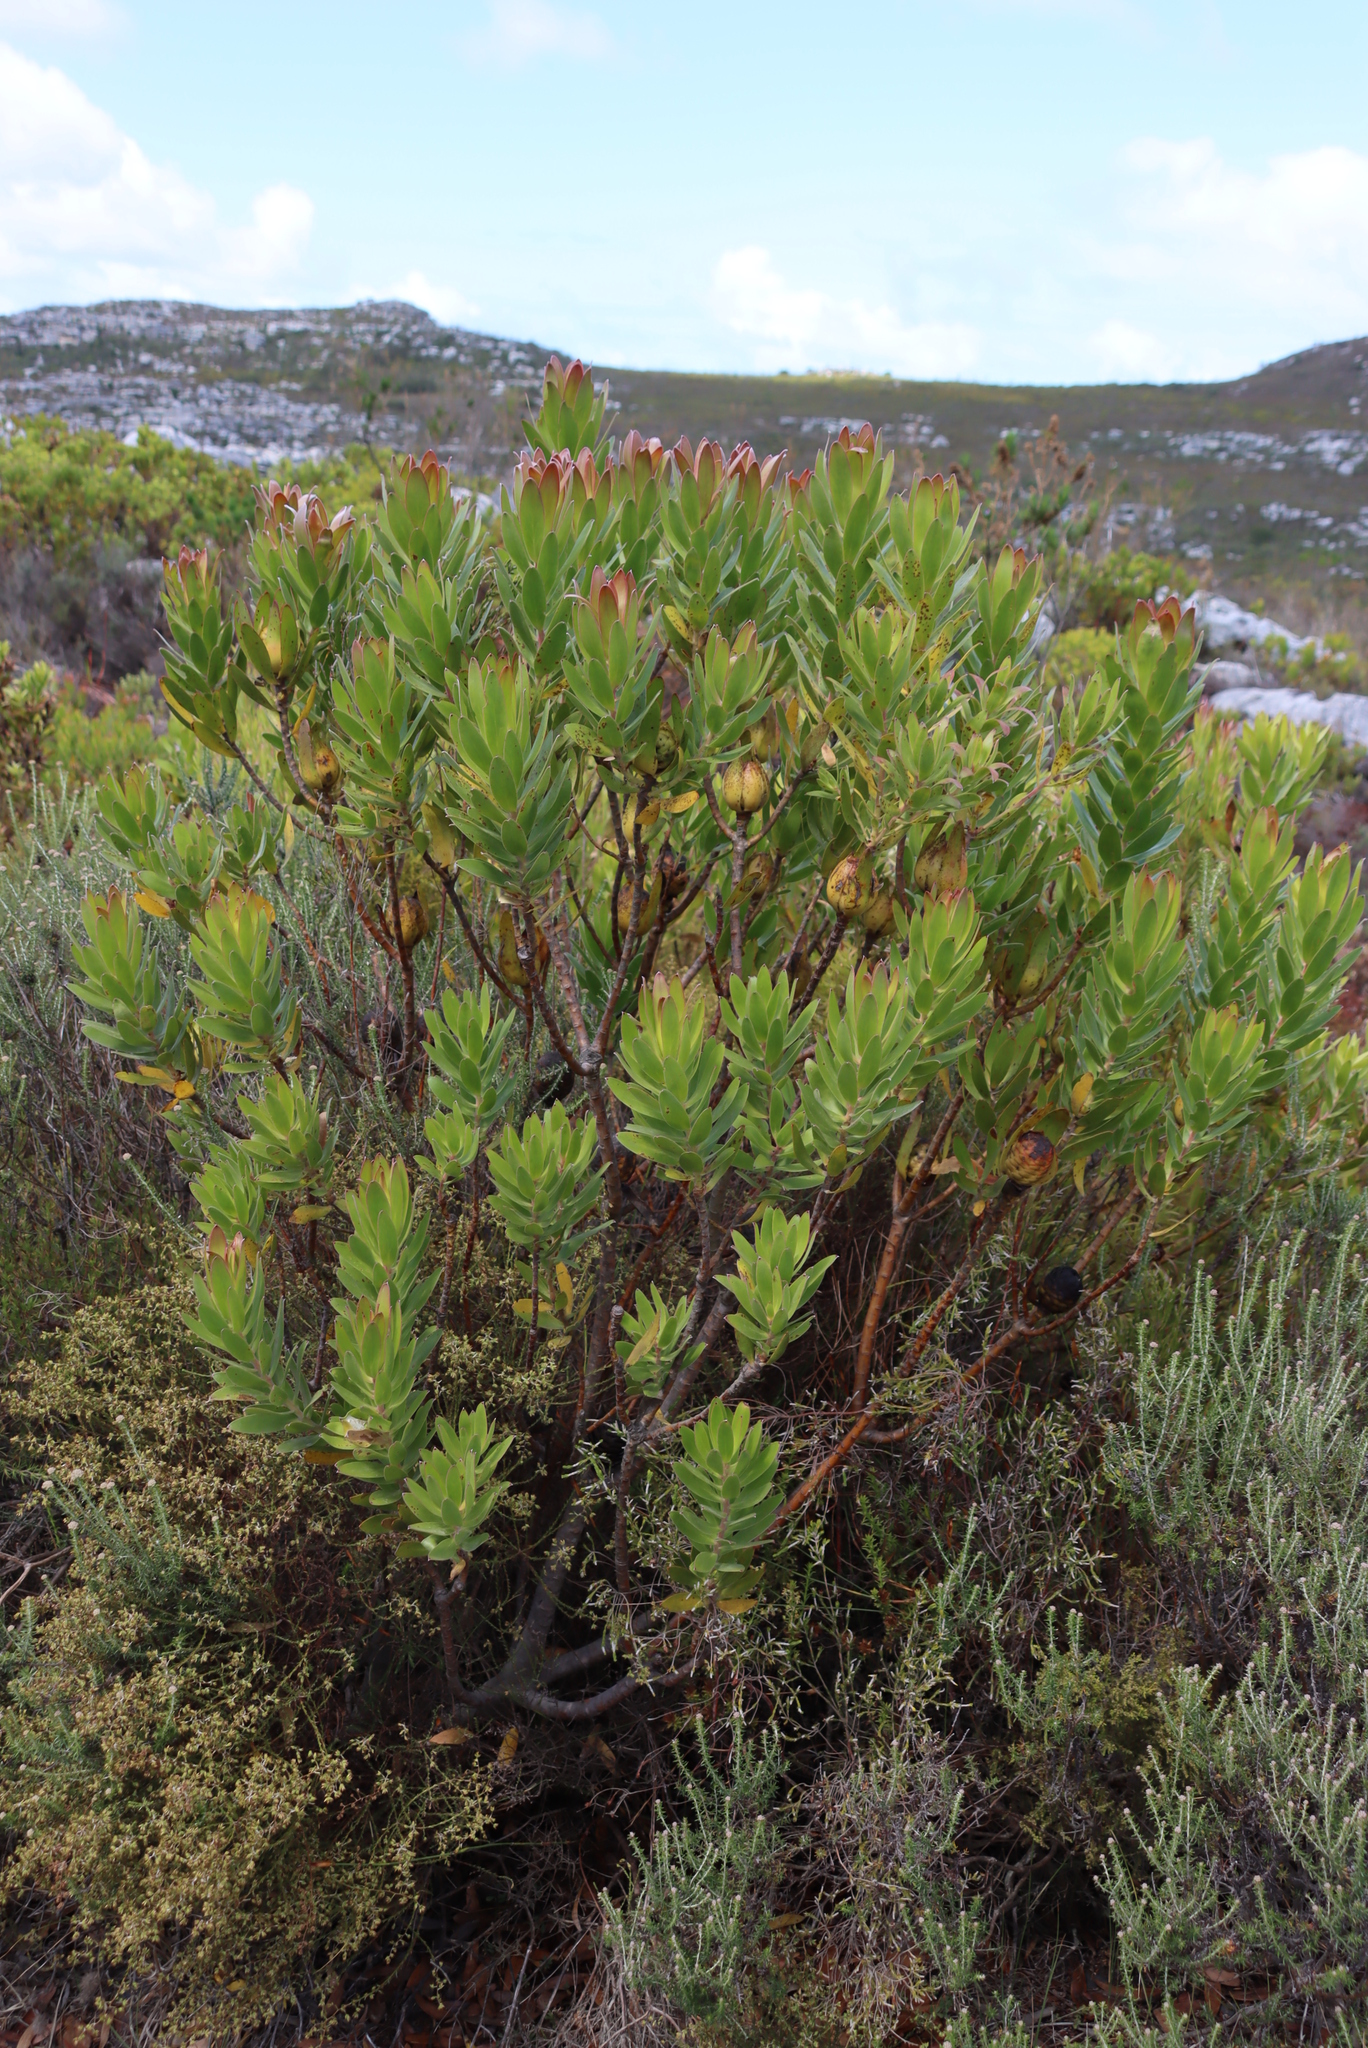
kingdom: Plantae
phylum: Tracheophyta
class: Magnoliopsida
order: Proteales
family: Proteaceae
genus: Leucadendron
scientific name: Leucadendron laureolum
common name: Golden sunshinebush
